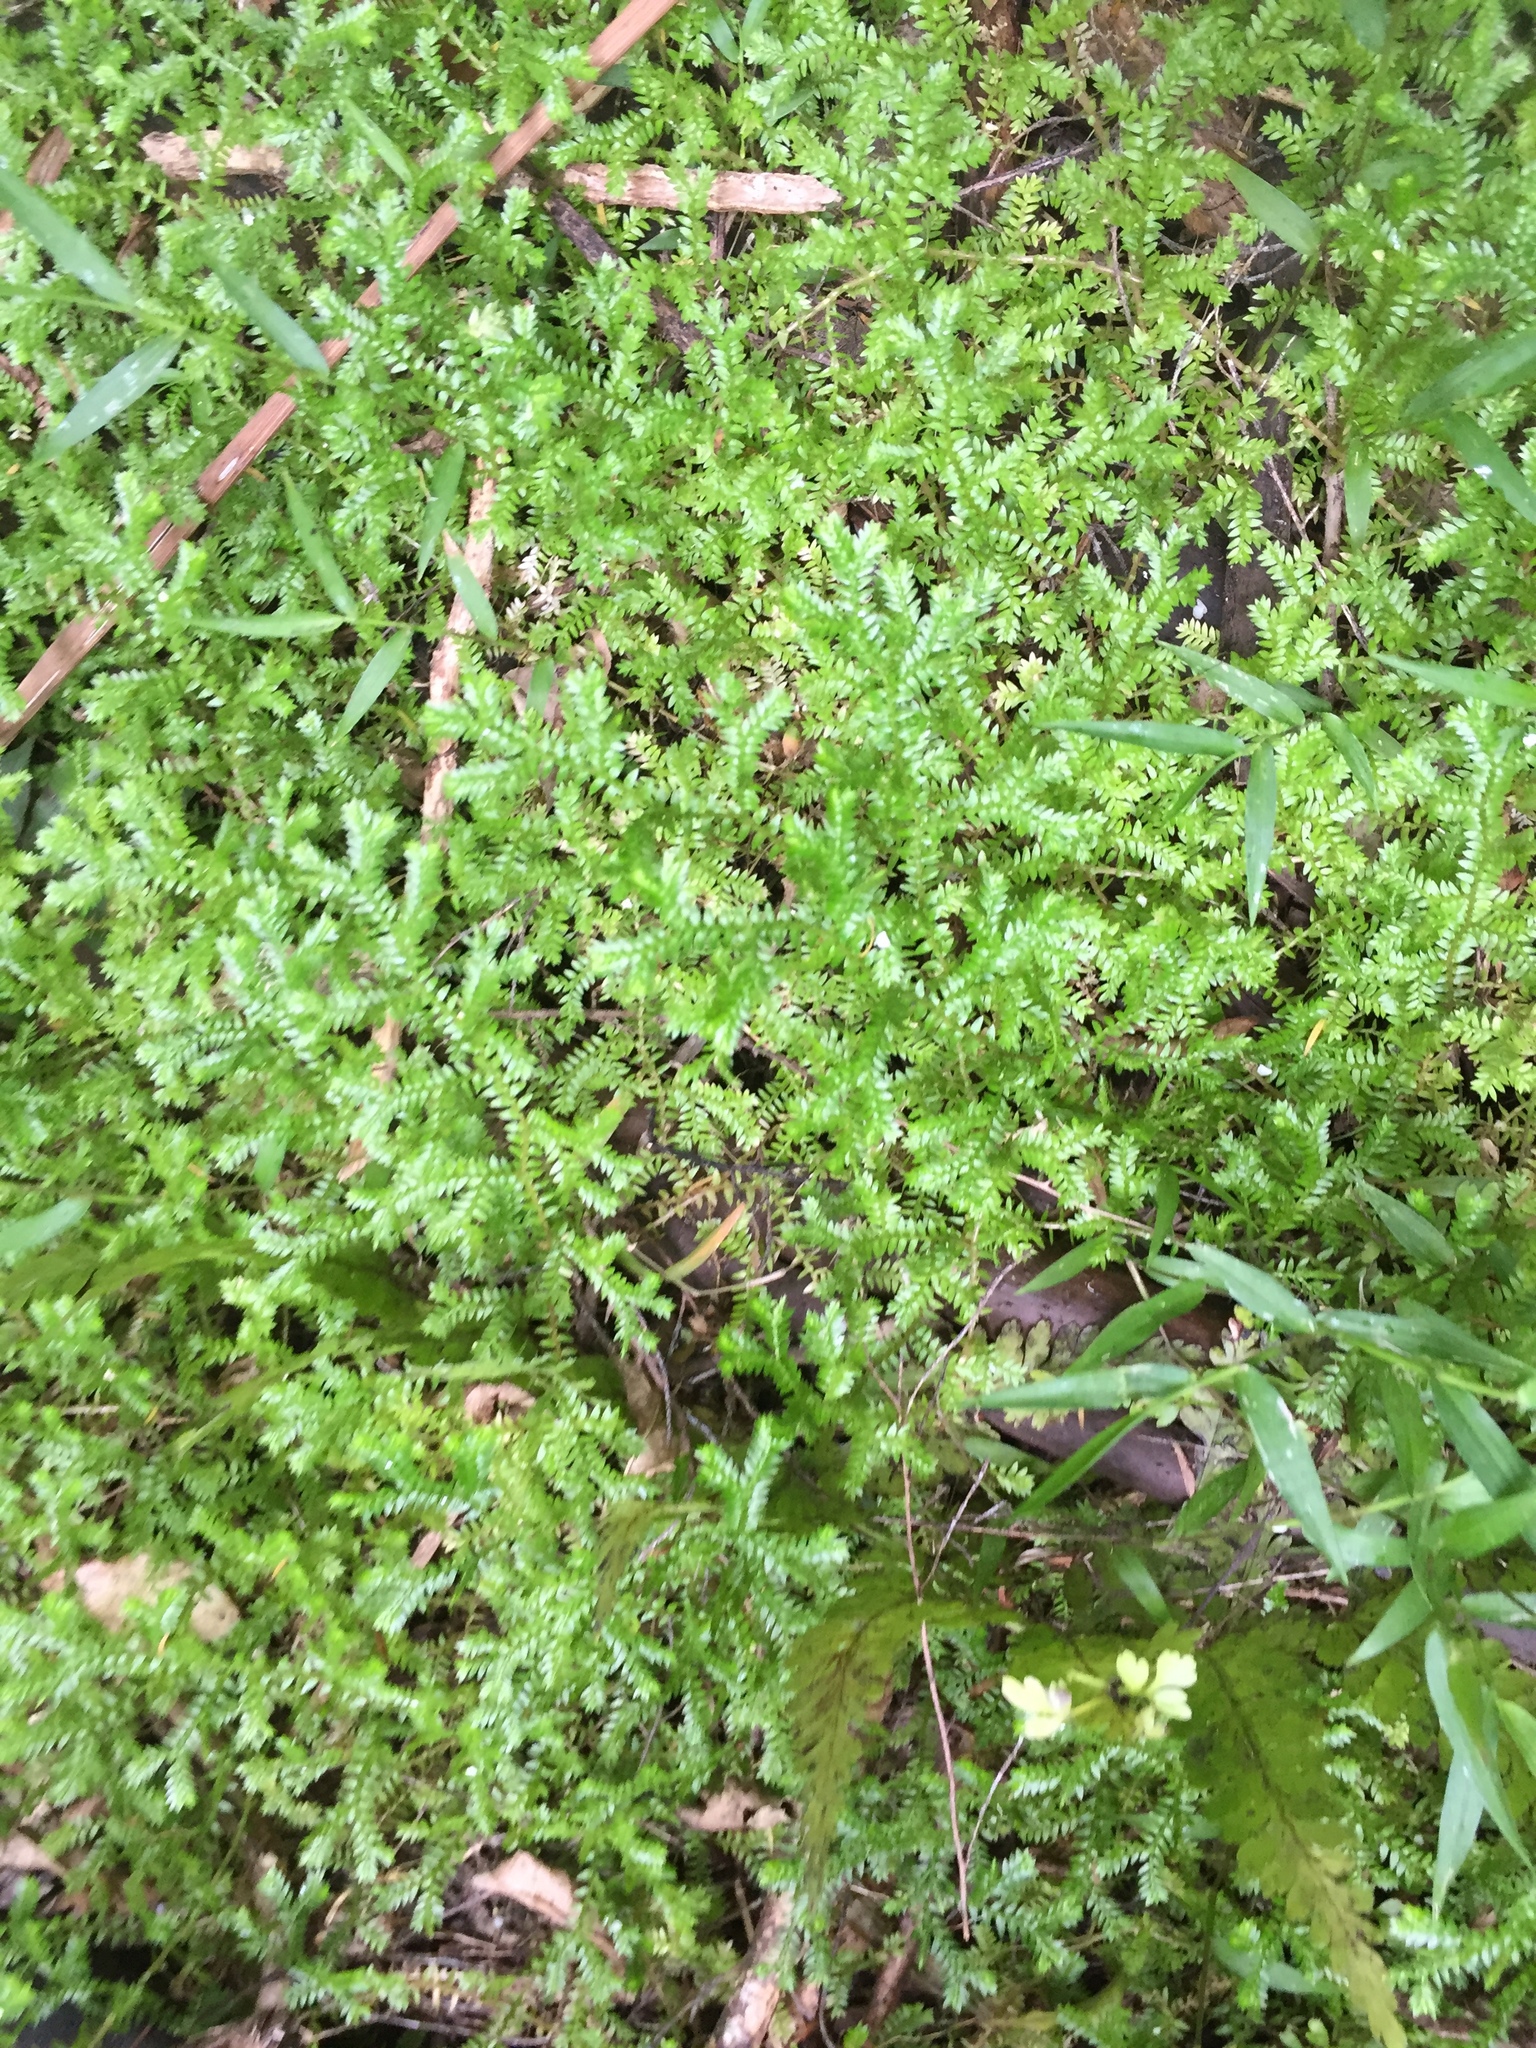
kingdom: Plantae
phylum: Tracheophyta
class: Lycopodiopsida
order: Selaginellales
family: Selaginellaceae
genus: Selaginella
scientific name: Selaginella kraussiana
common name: Krauss' spikemoss
